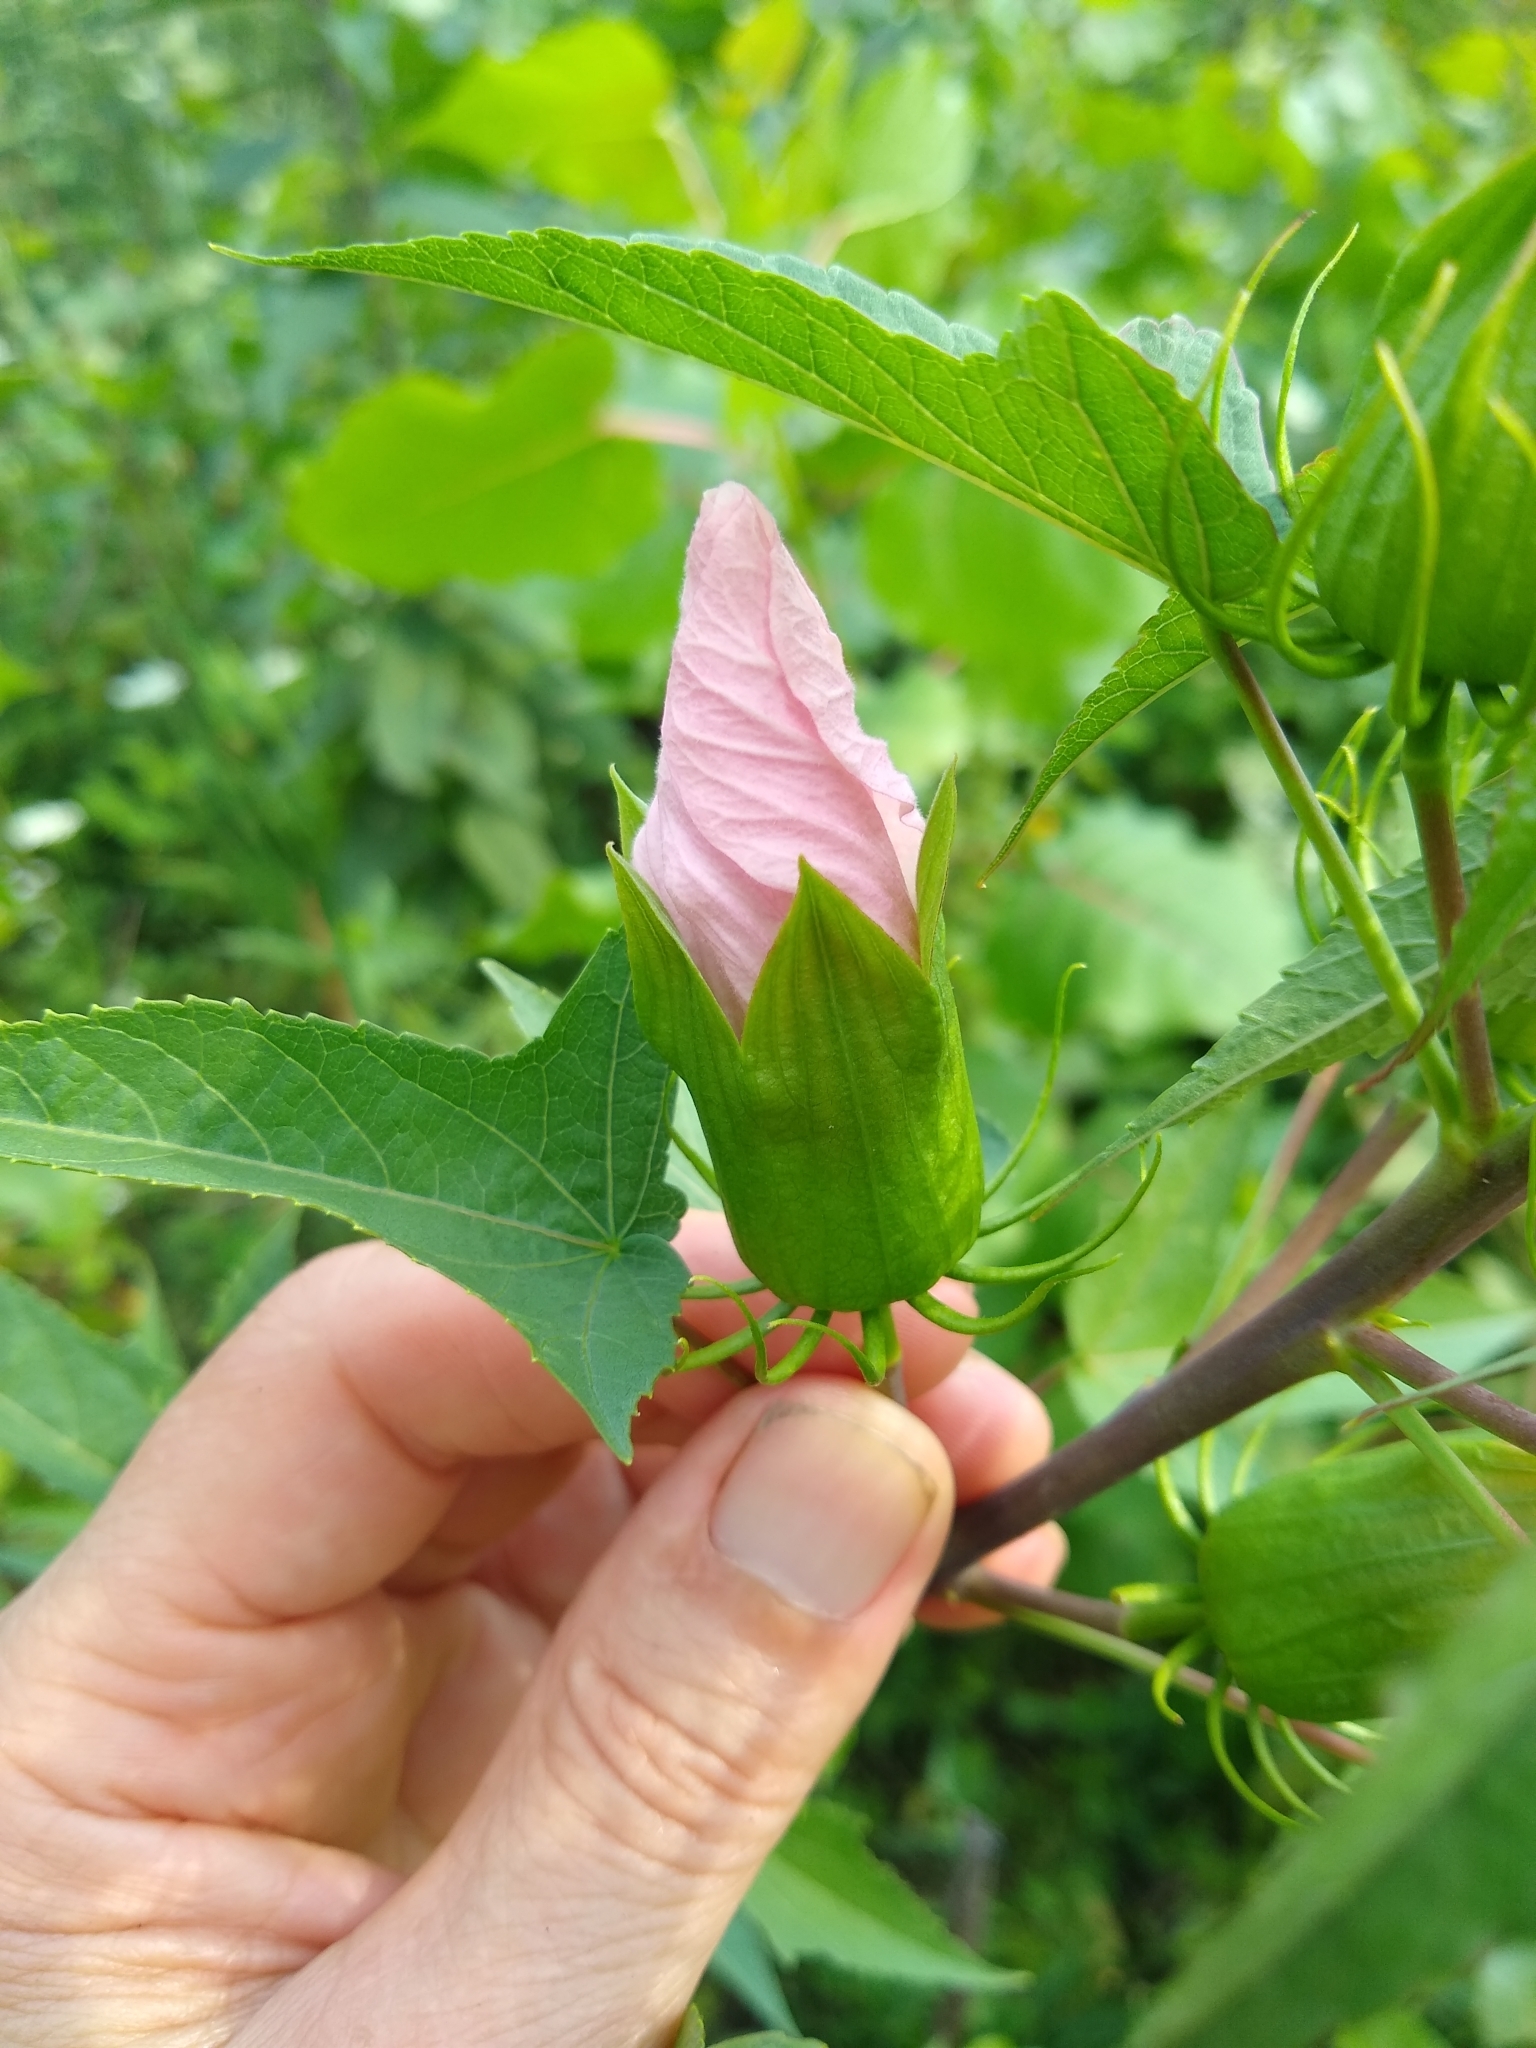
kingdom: Plantae
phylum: Tracheophyta
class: Magnoliopsida
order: Malvales
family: Malvaceae
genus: Hibiscus
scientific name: Hibiscus laevis
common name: Scarlet rose-mallow
